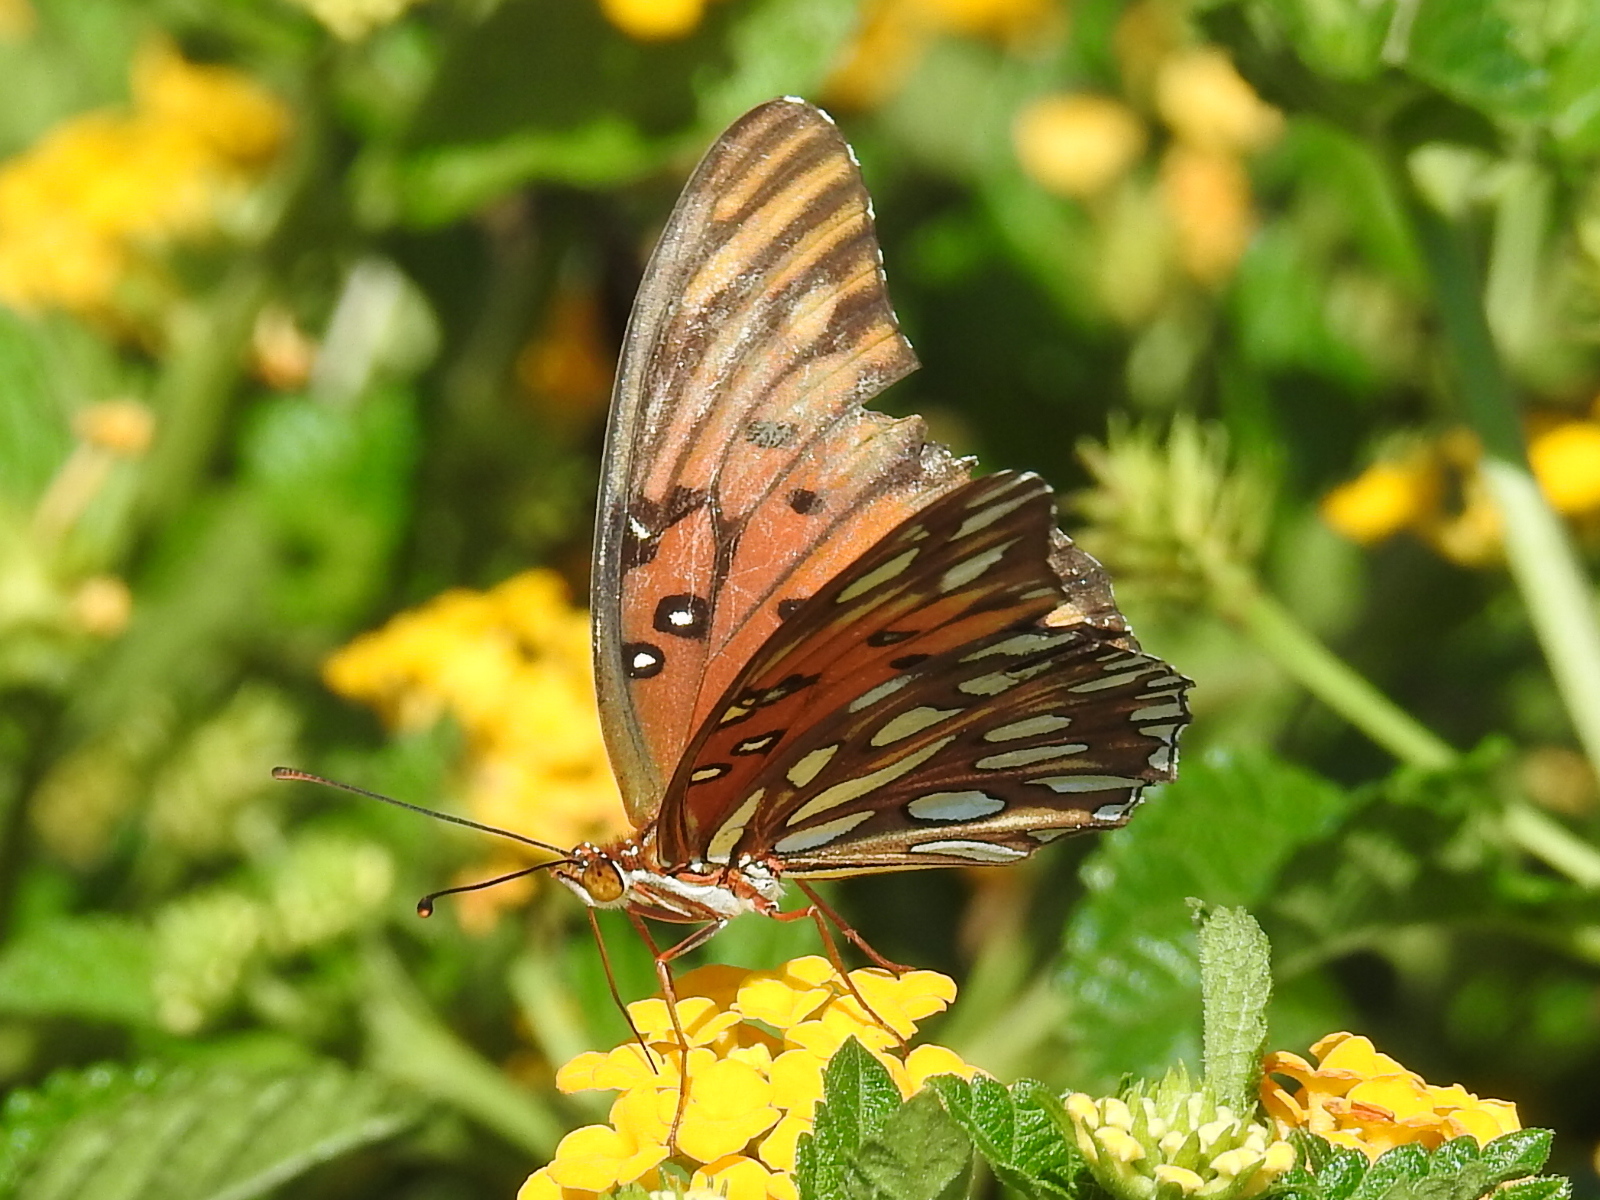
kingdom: Animalia
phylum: Arthropoda
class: Insecta
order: Lepidoptera
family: Nymphalidae
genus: Dione
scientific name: Dione vanillae
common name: Gulf fritillary
